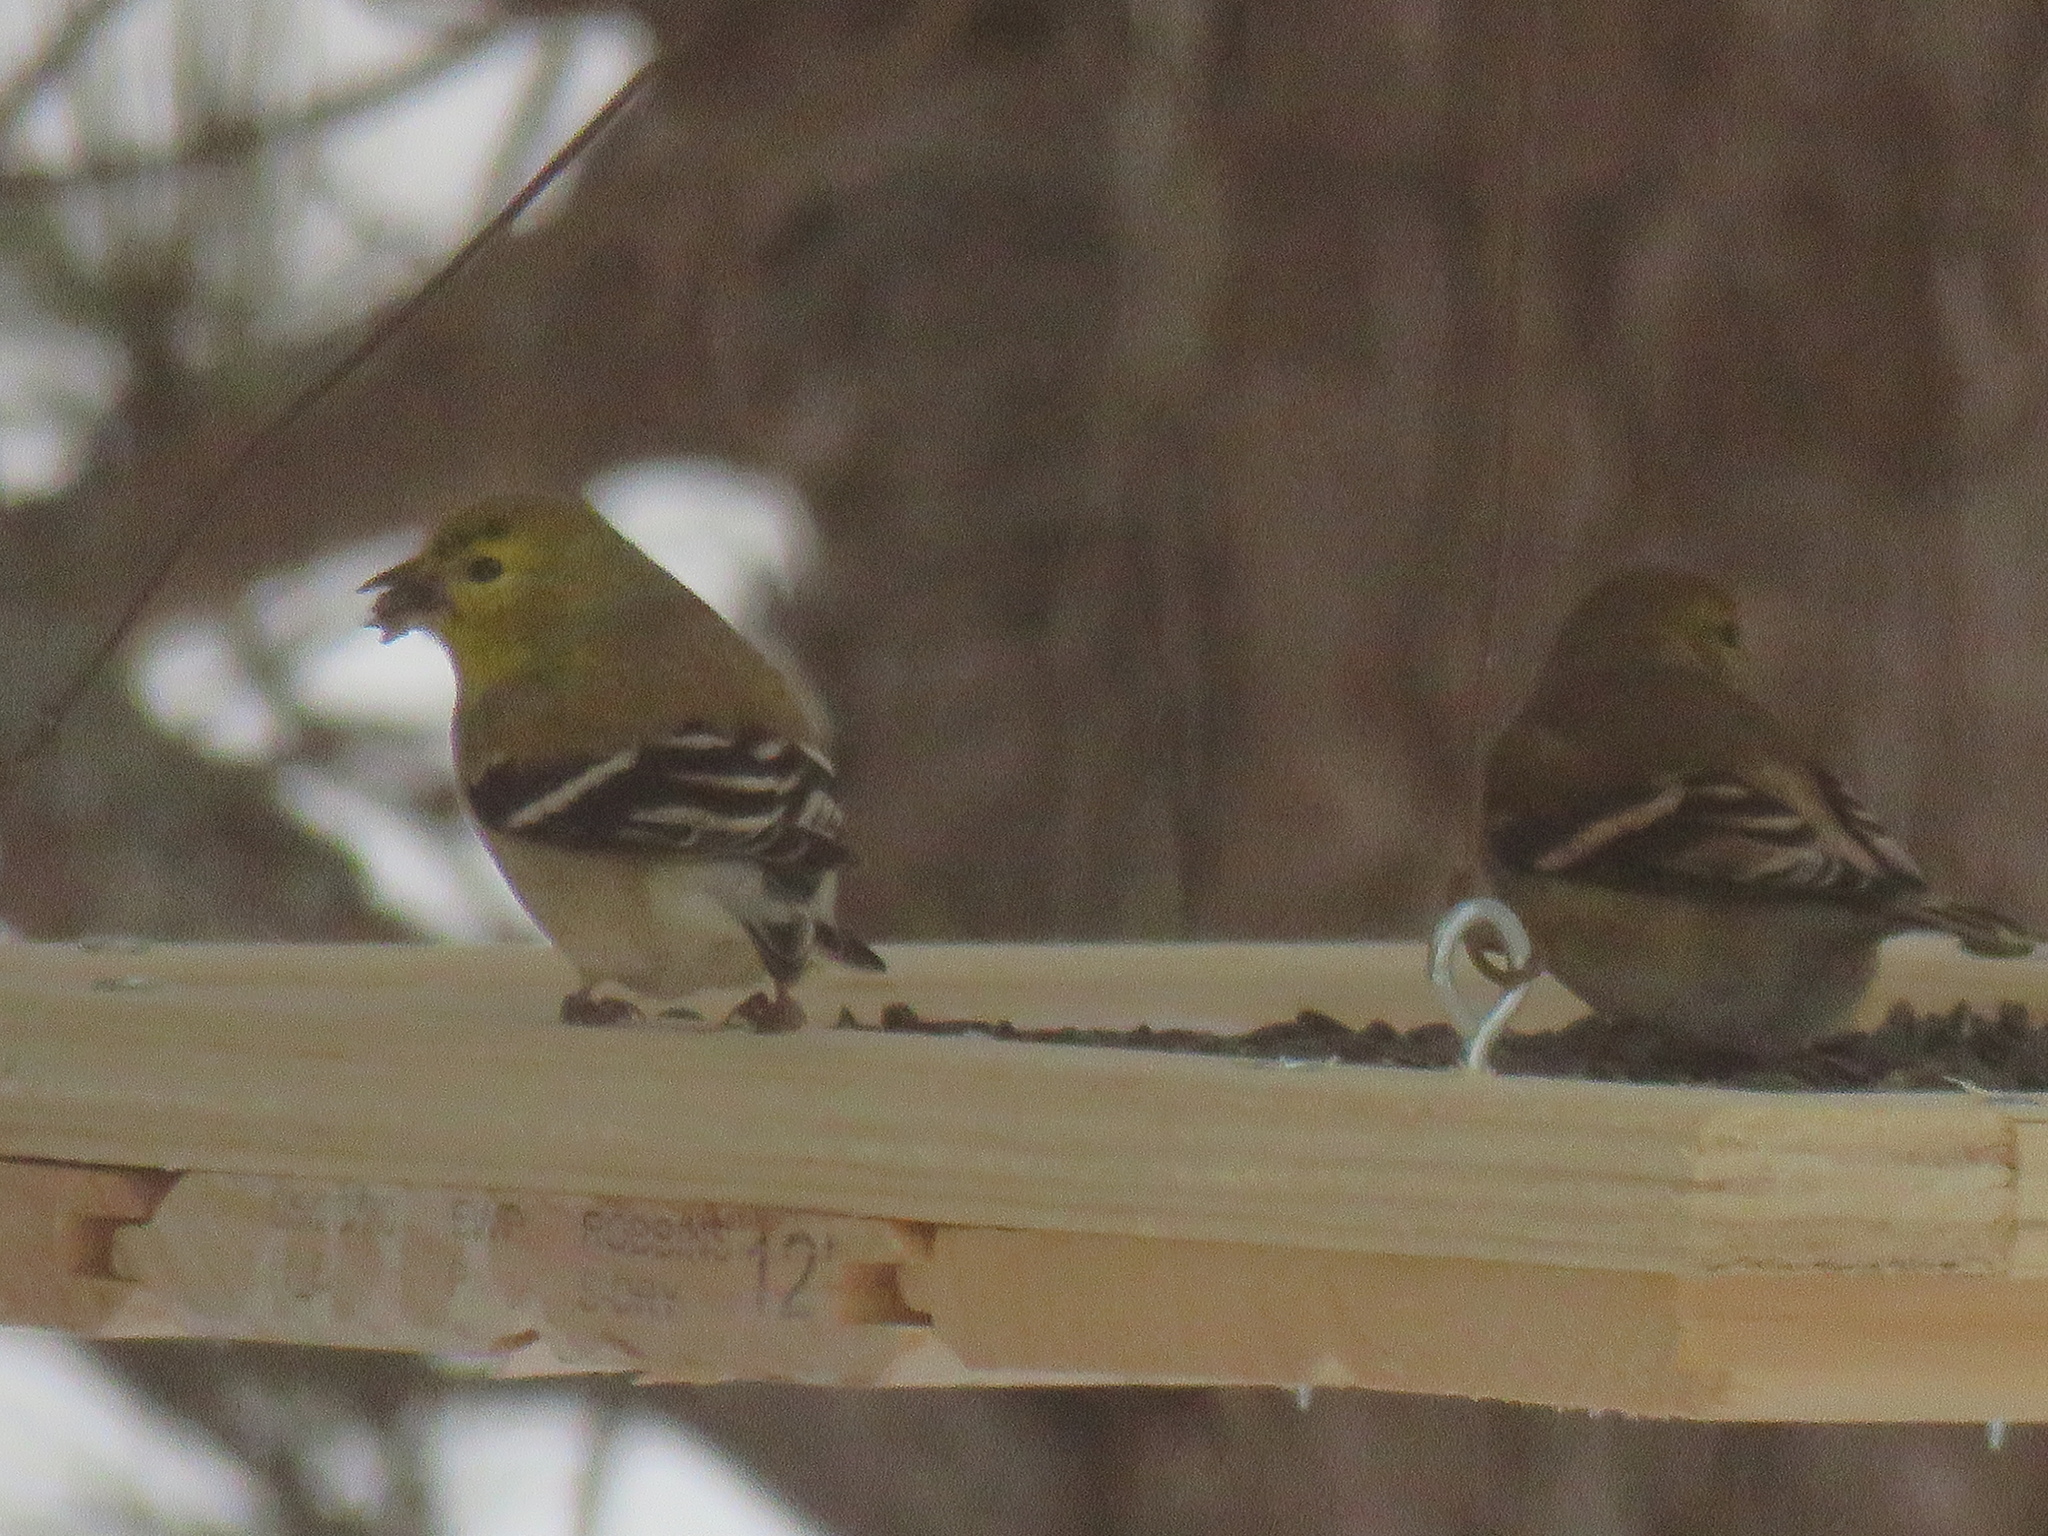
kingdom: Animalia
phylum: Chordata
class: Aves
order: Passeriformes
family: Fringillidae
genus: Spinus
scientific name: Spinus tristis
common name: American goldfinch
